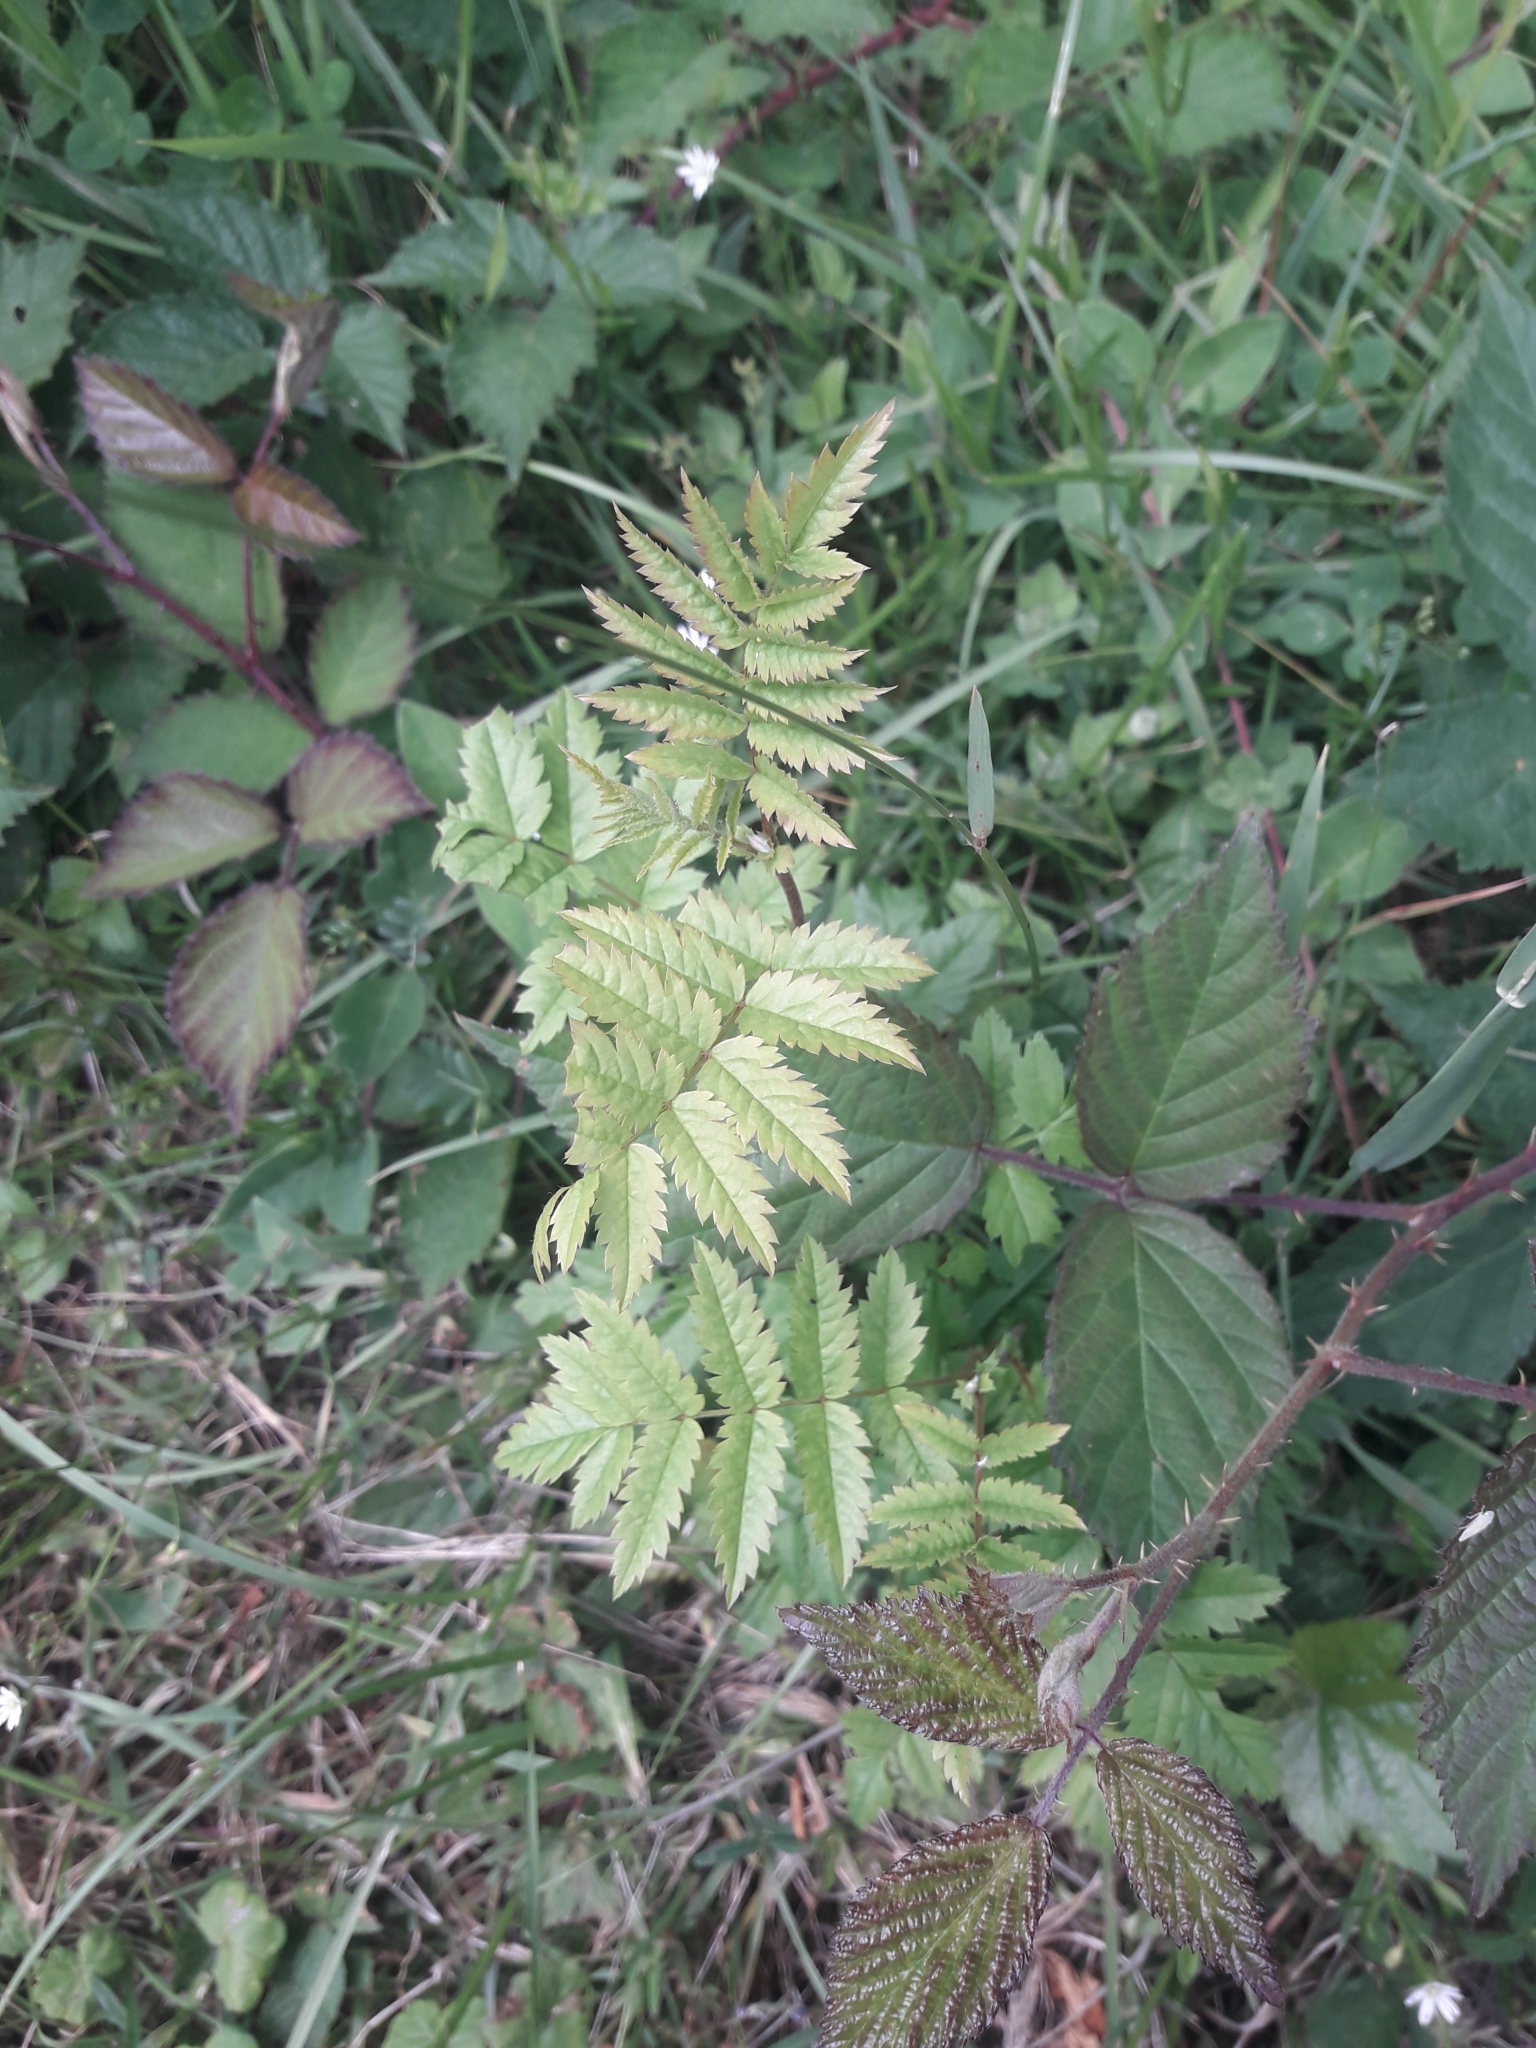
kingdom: Plantae
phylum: Tracheophyta
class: Magnoliopsida
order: Rosales
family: Rosaceae
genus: Filipendula
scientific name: Filipendula ulmaria
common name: Meadowsweet
